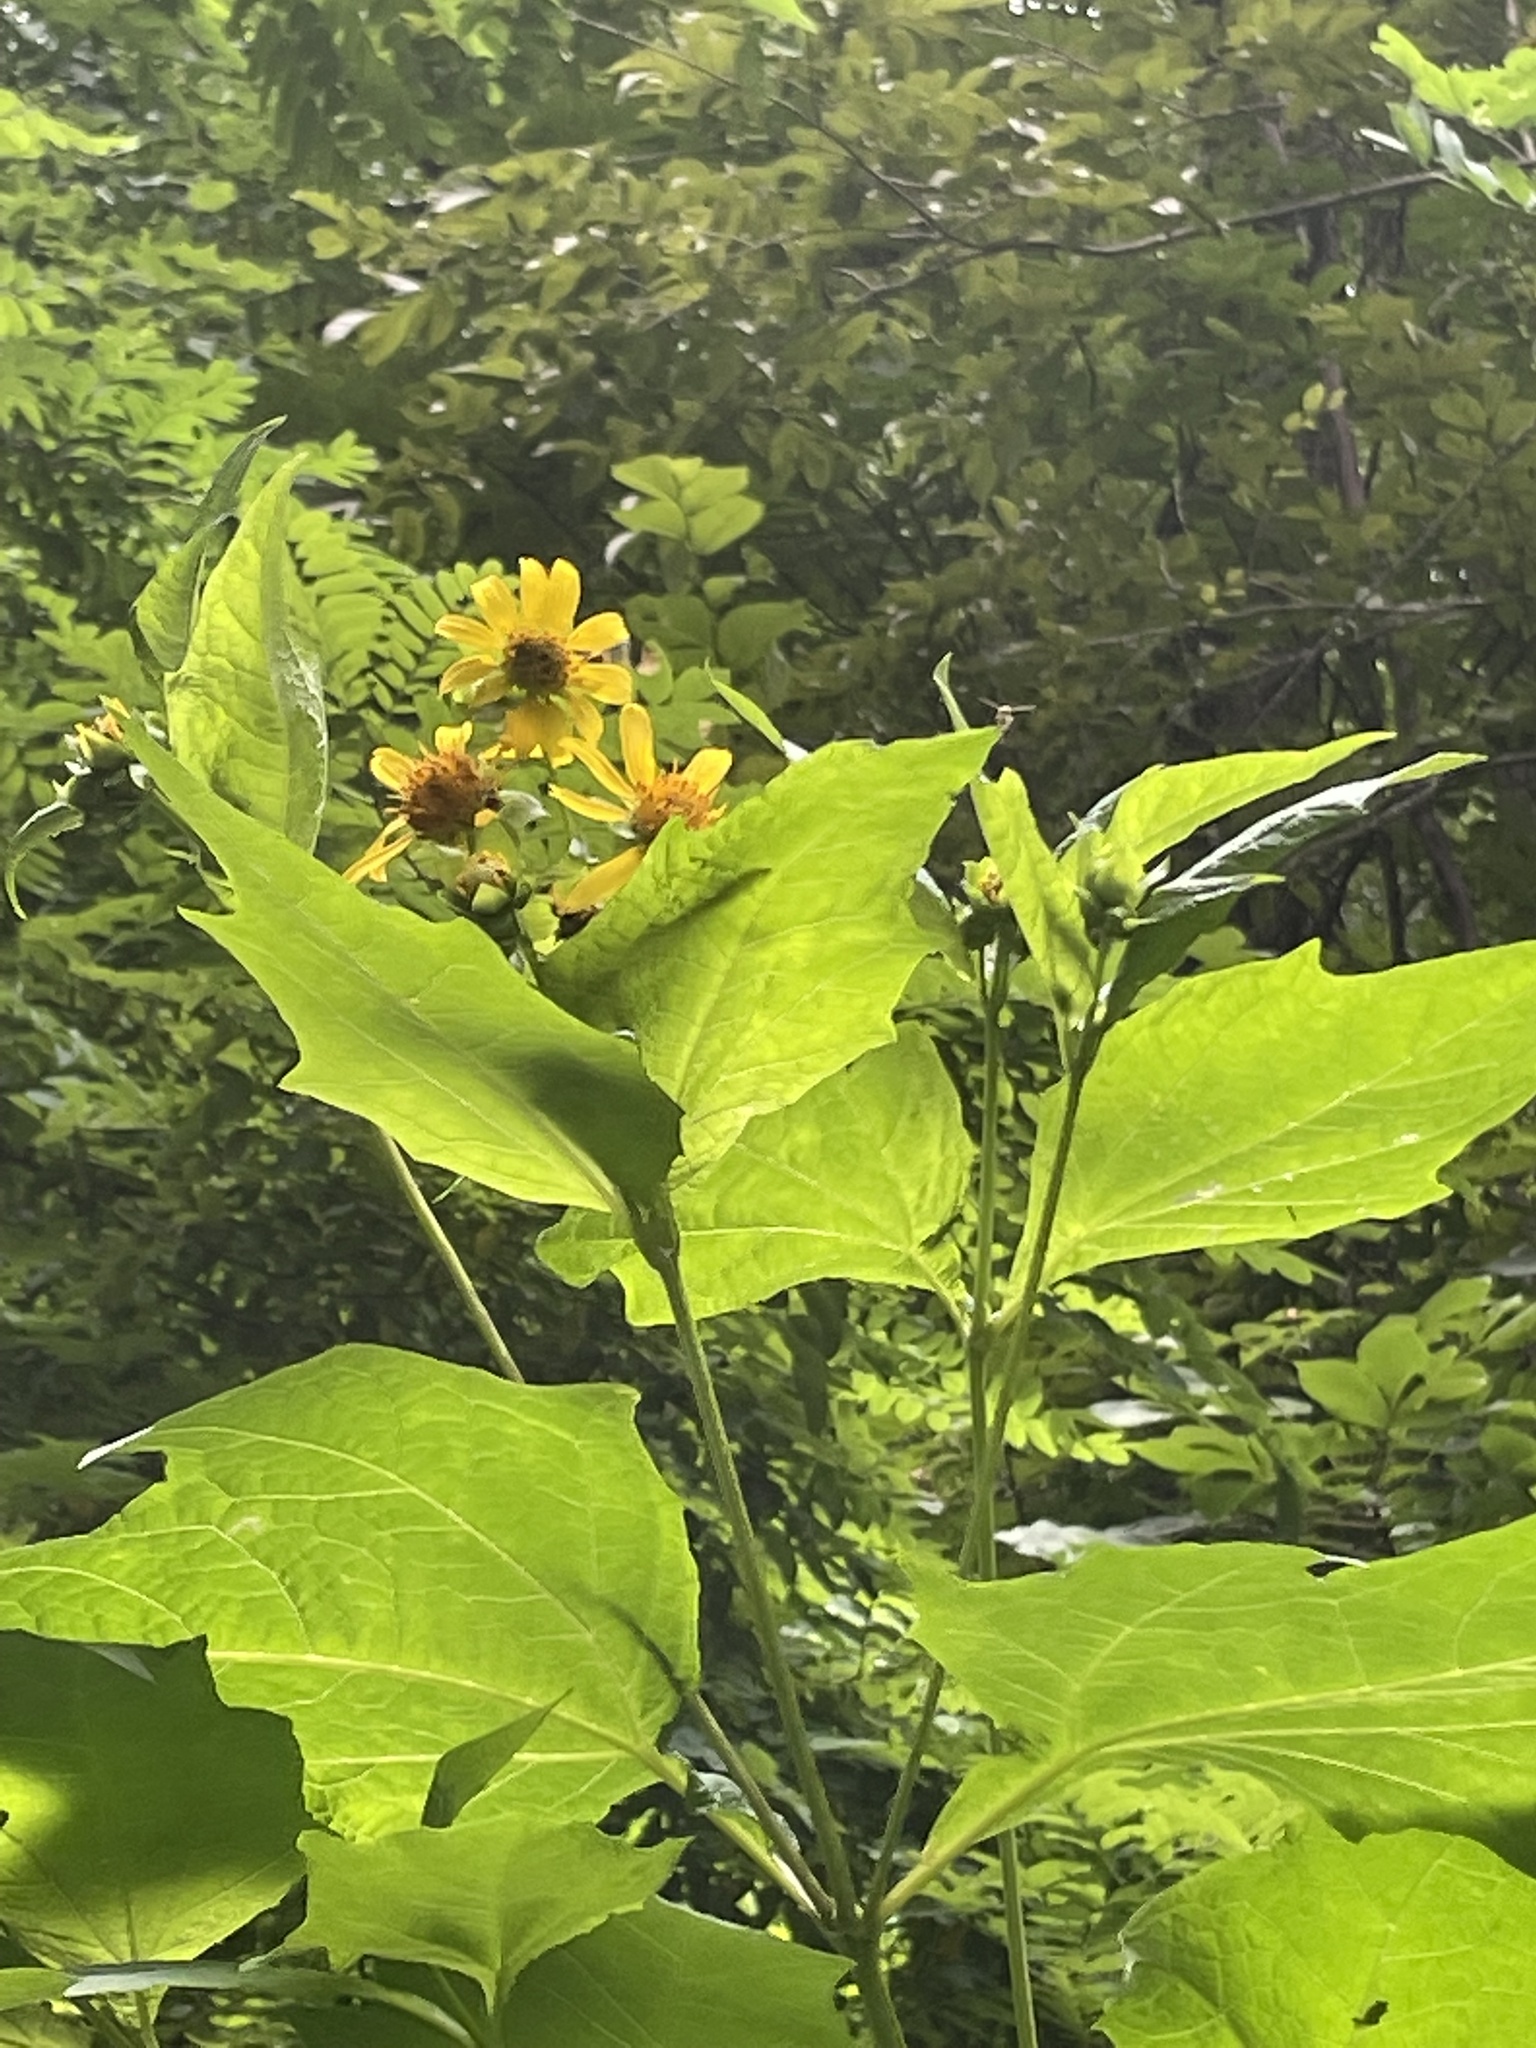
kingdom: Plantae
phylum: Tracheophyta
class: Magnoliopsida
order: Asterales
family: Asteraceae
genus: Smallanthus
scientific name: Smallanthus uvedalia
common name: Bear's-foot
